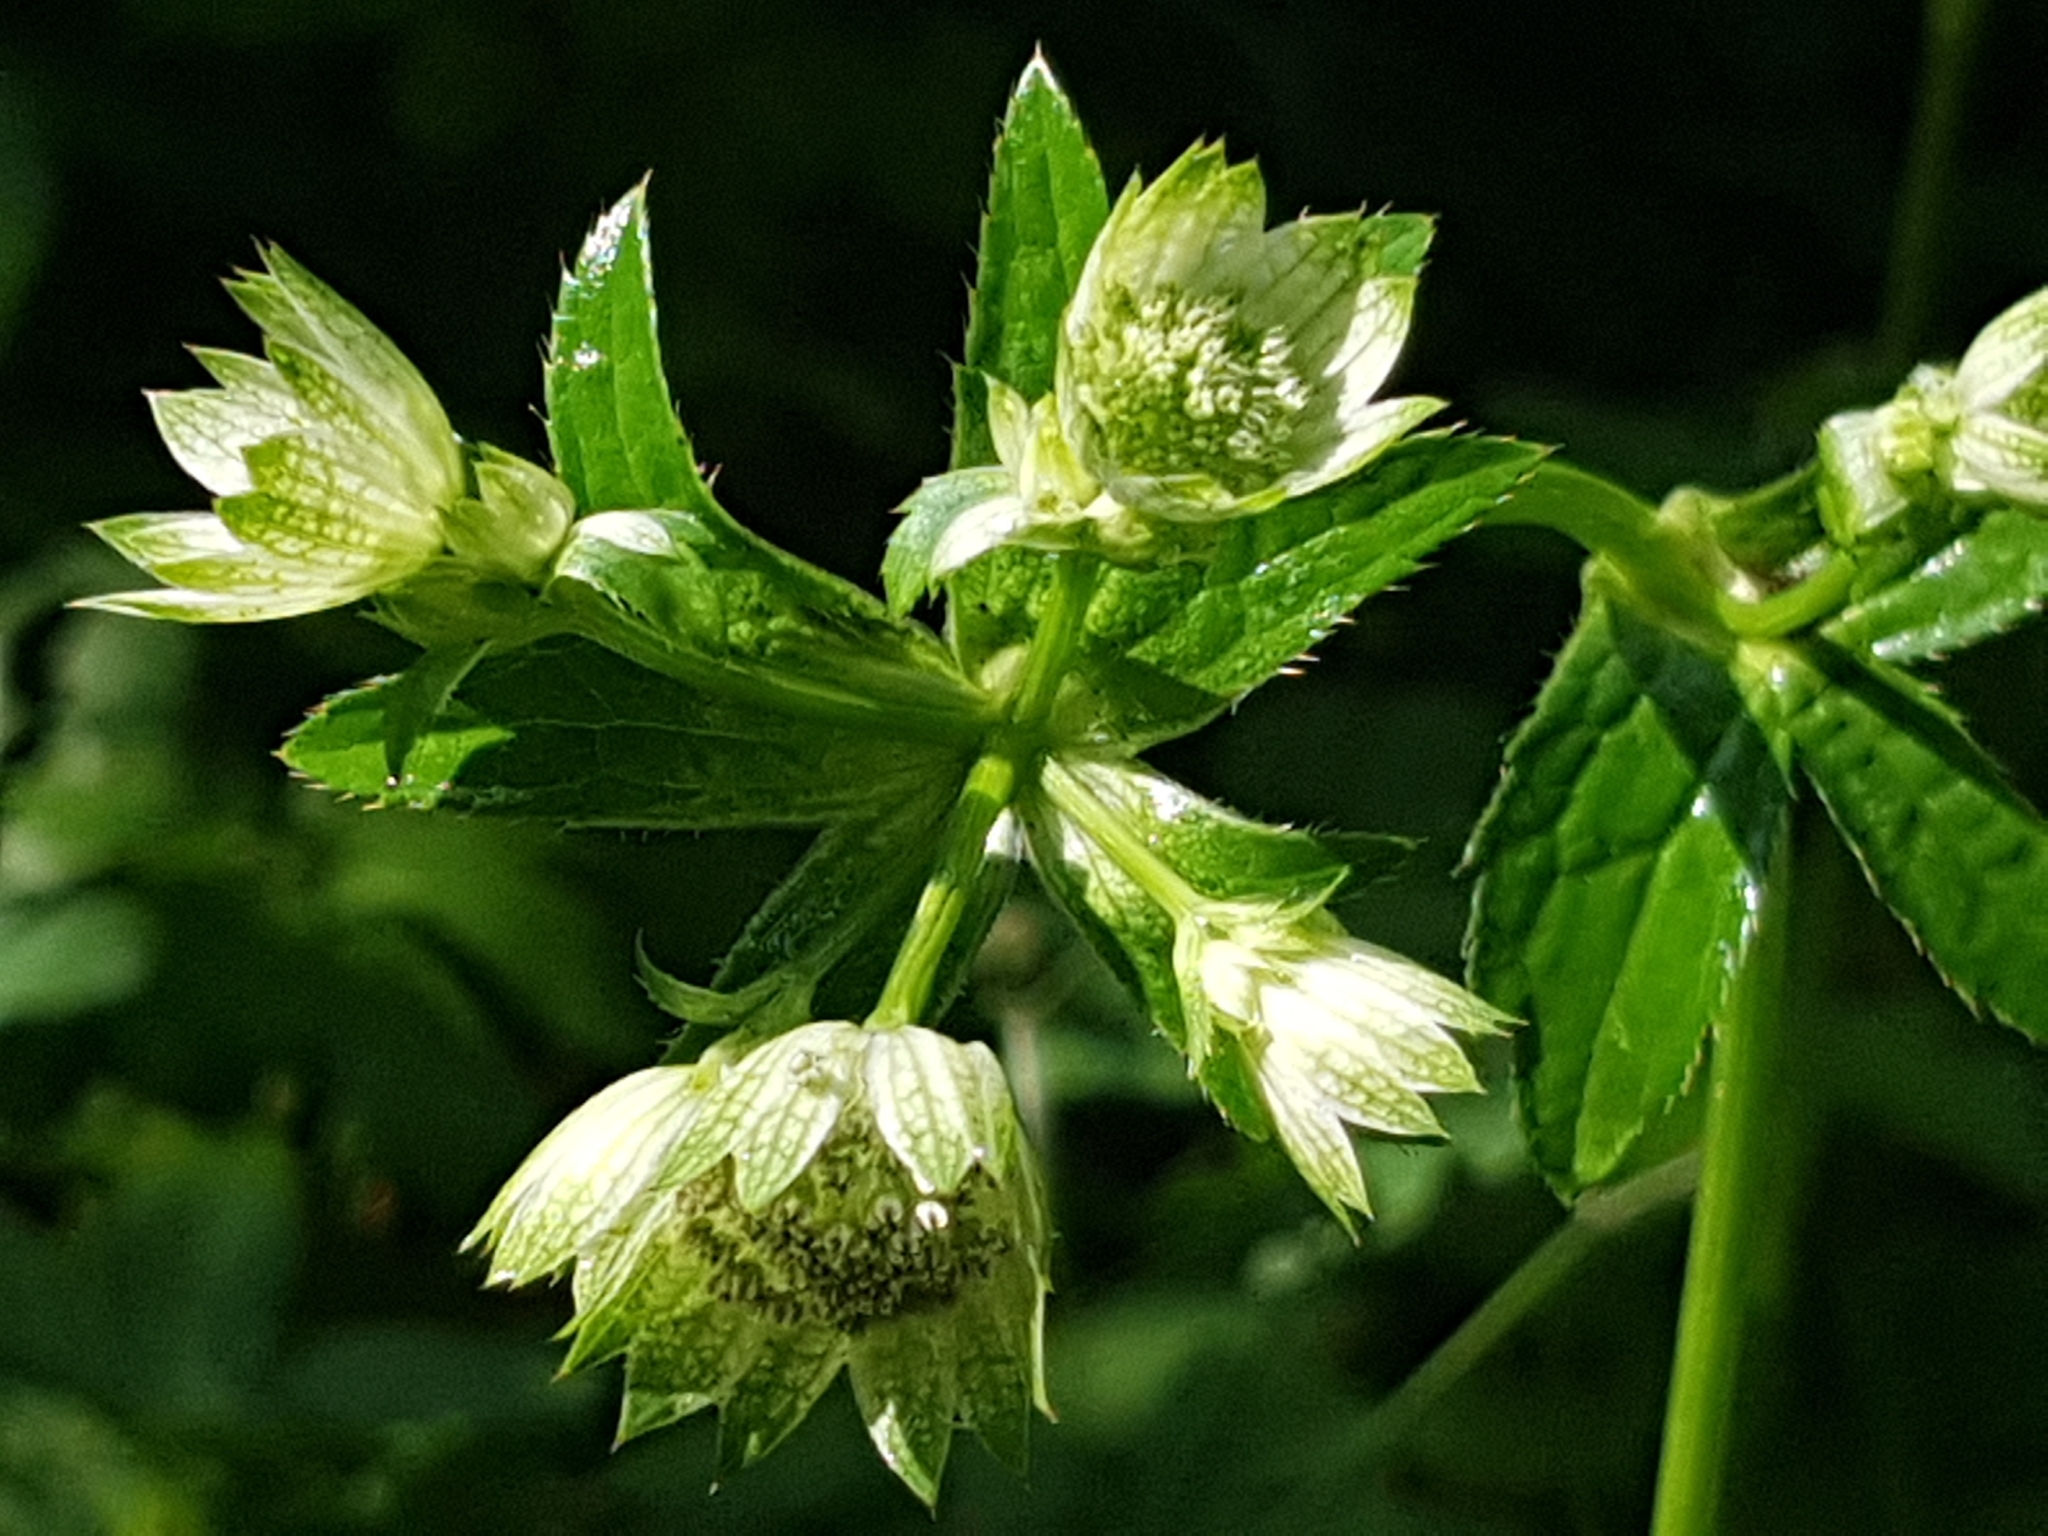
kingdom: Plantae
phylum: Tracheophyta
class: Magnoliopsida
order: Apiales
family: Apiaceae
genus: Astrantia
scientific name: Astrantia major
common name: Greater masterwort
